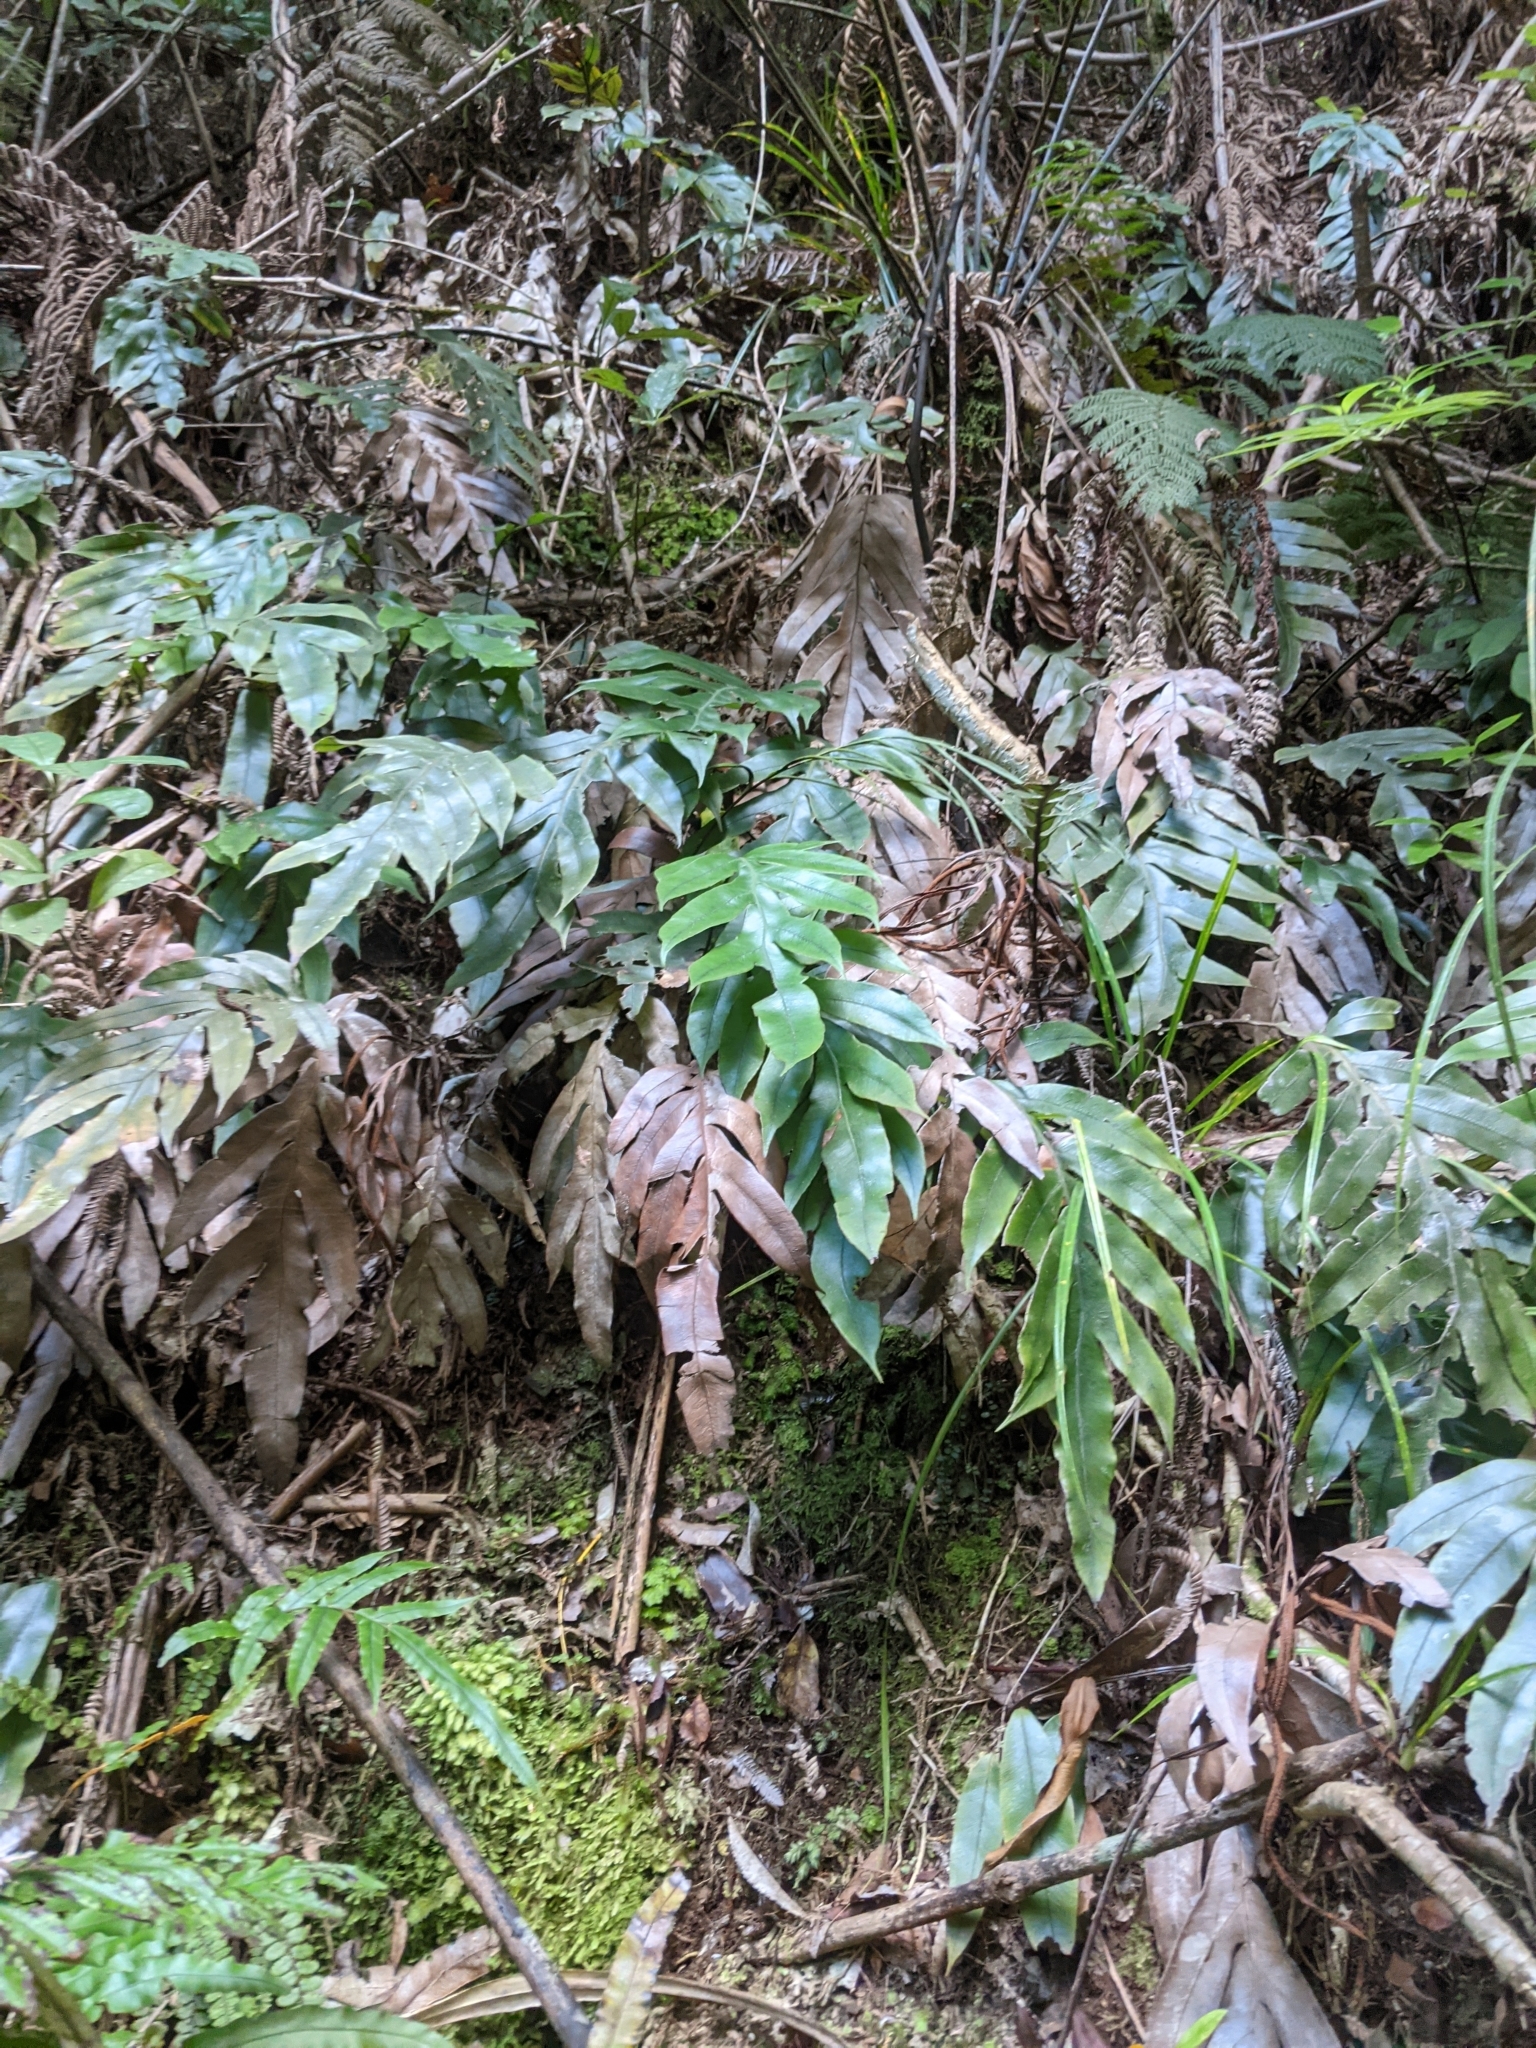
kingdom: Plantae
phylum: Tracheophyta
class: Polypodiopsida
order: Polypodiales
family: Blechnaceae
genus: Austroblechnum
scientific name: Austroblechnum colensoi
